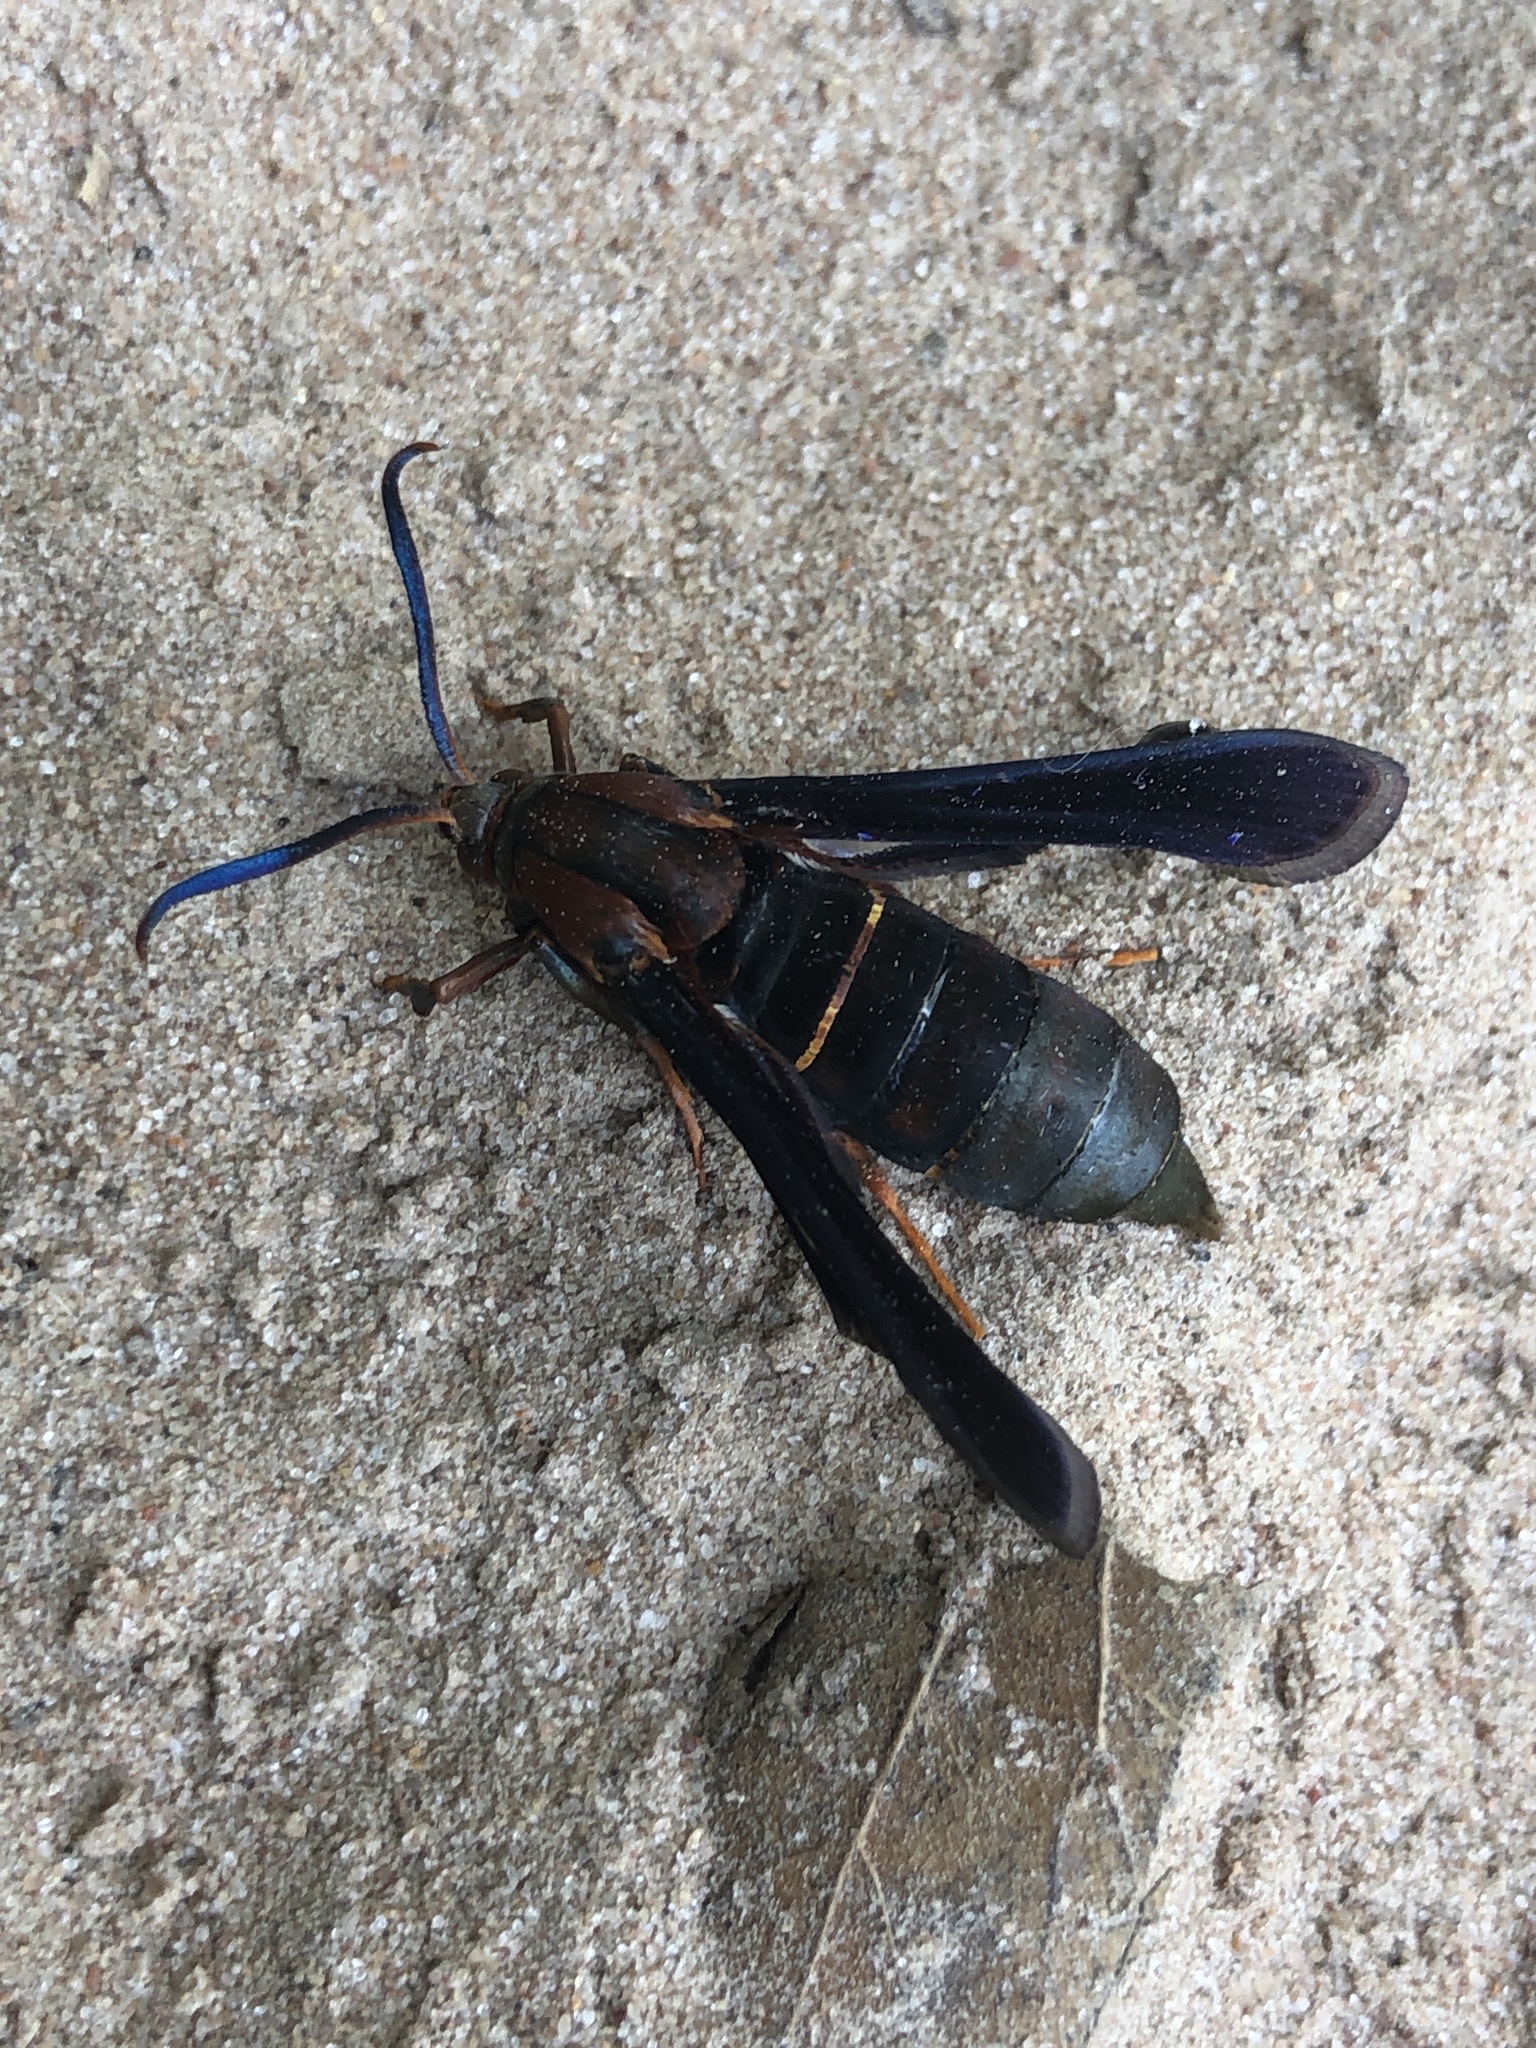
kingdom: Animalia
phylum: Arthropoda
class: Insecta
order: Lepidoptera
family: Sesiidae
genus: Vitacea
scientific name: Vitacea scepsiformis
